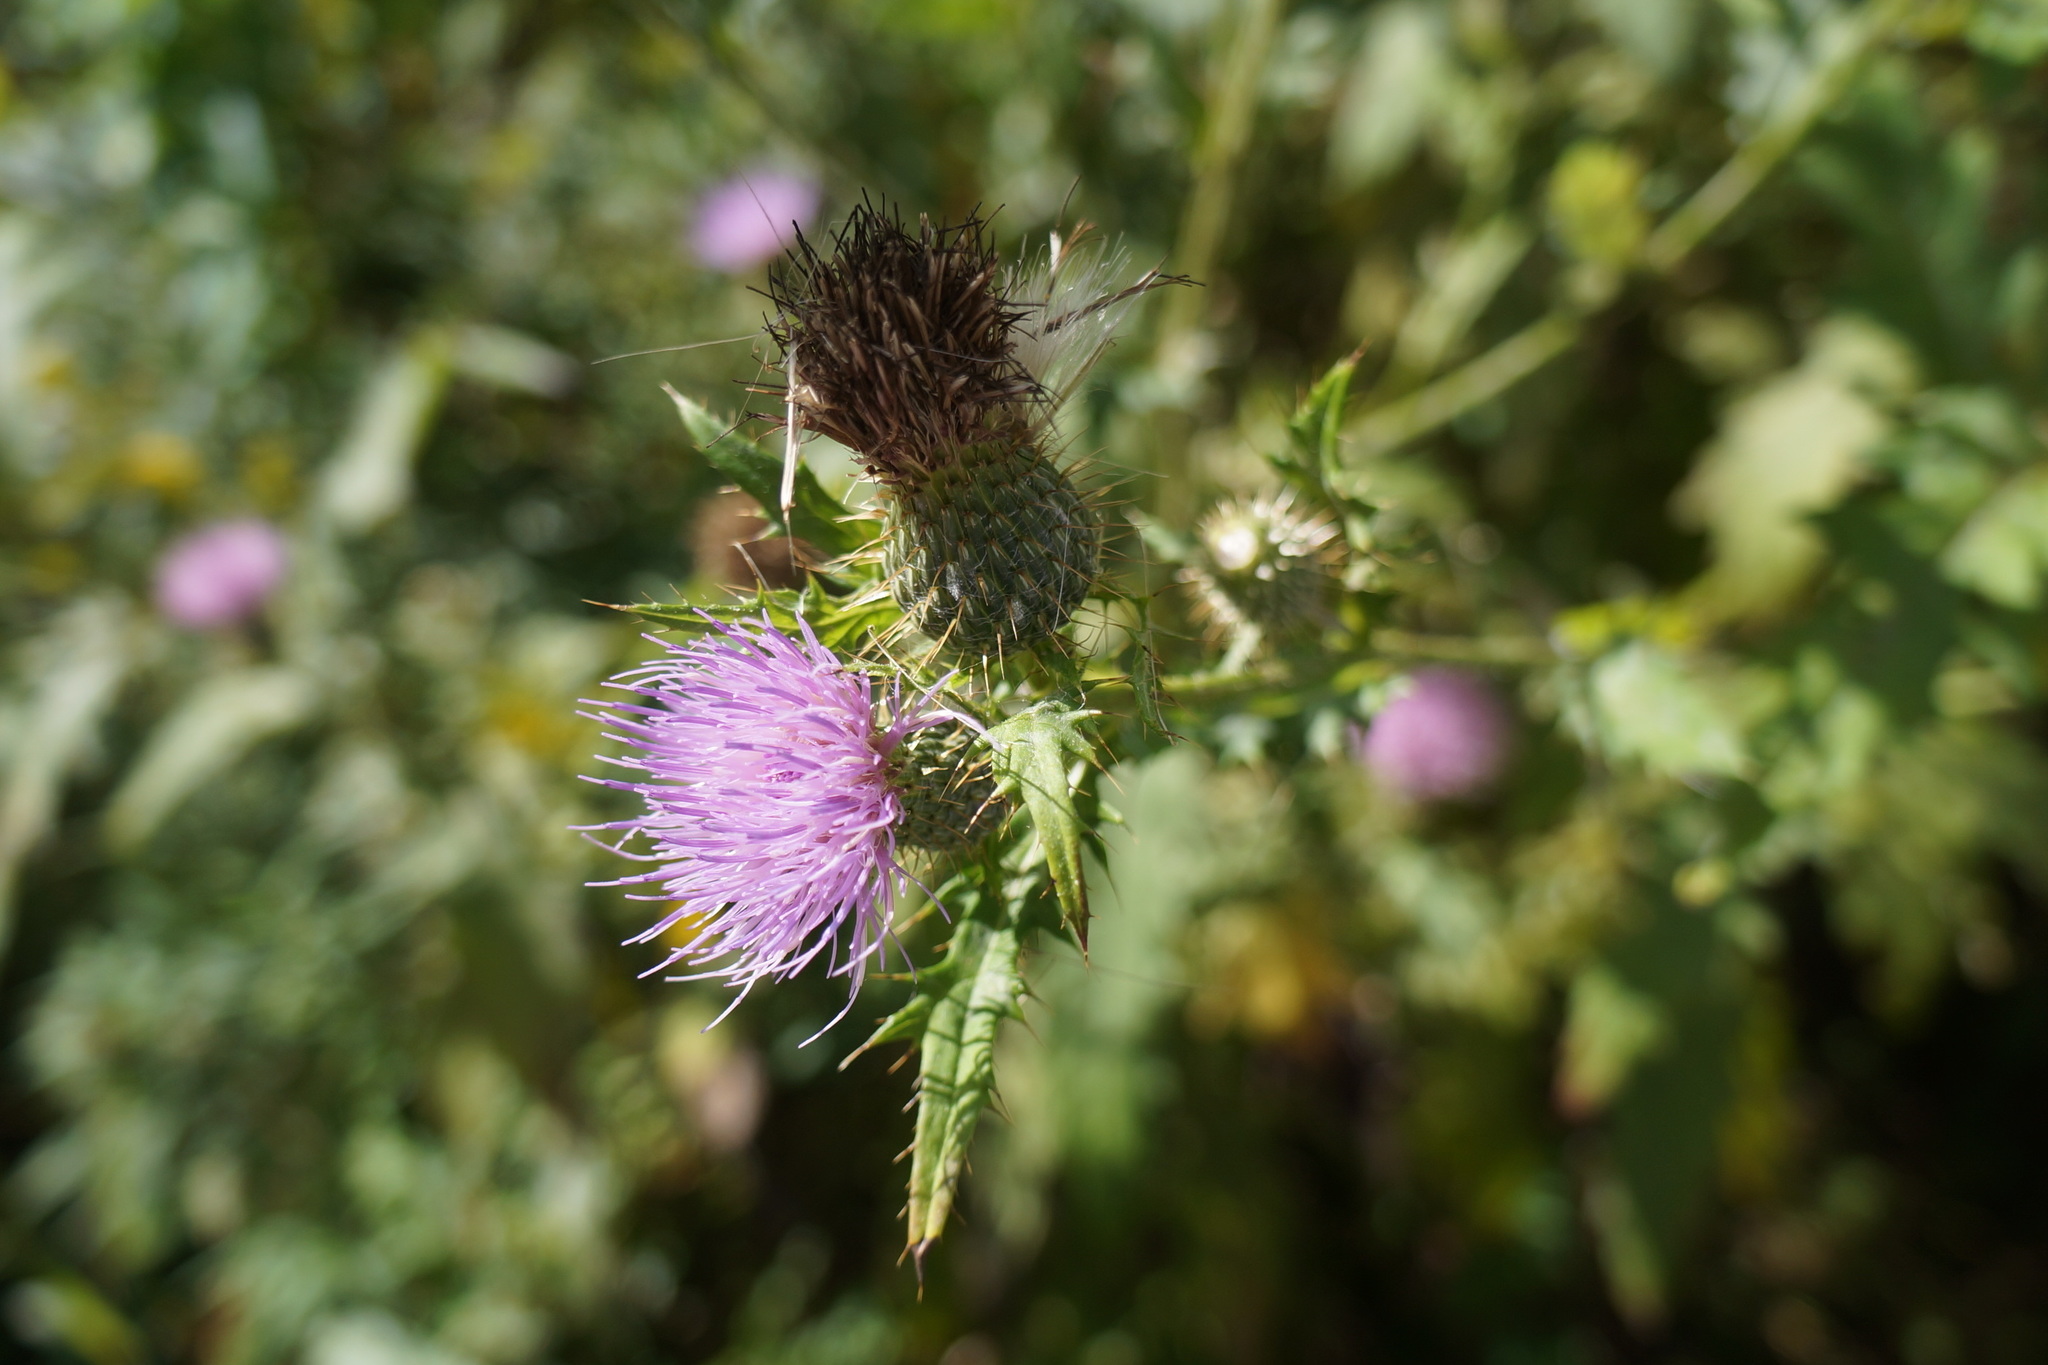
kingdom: Plantae
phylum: Tracheophyta
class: Magnoliopsida
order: Asterales
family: Asteraceae
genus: Cirsium
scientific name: Cirsium discolor
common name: Field thistle
